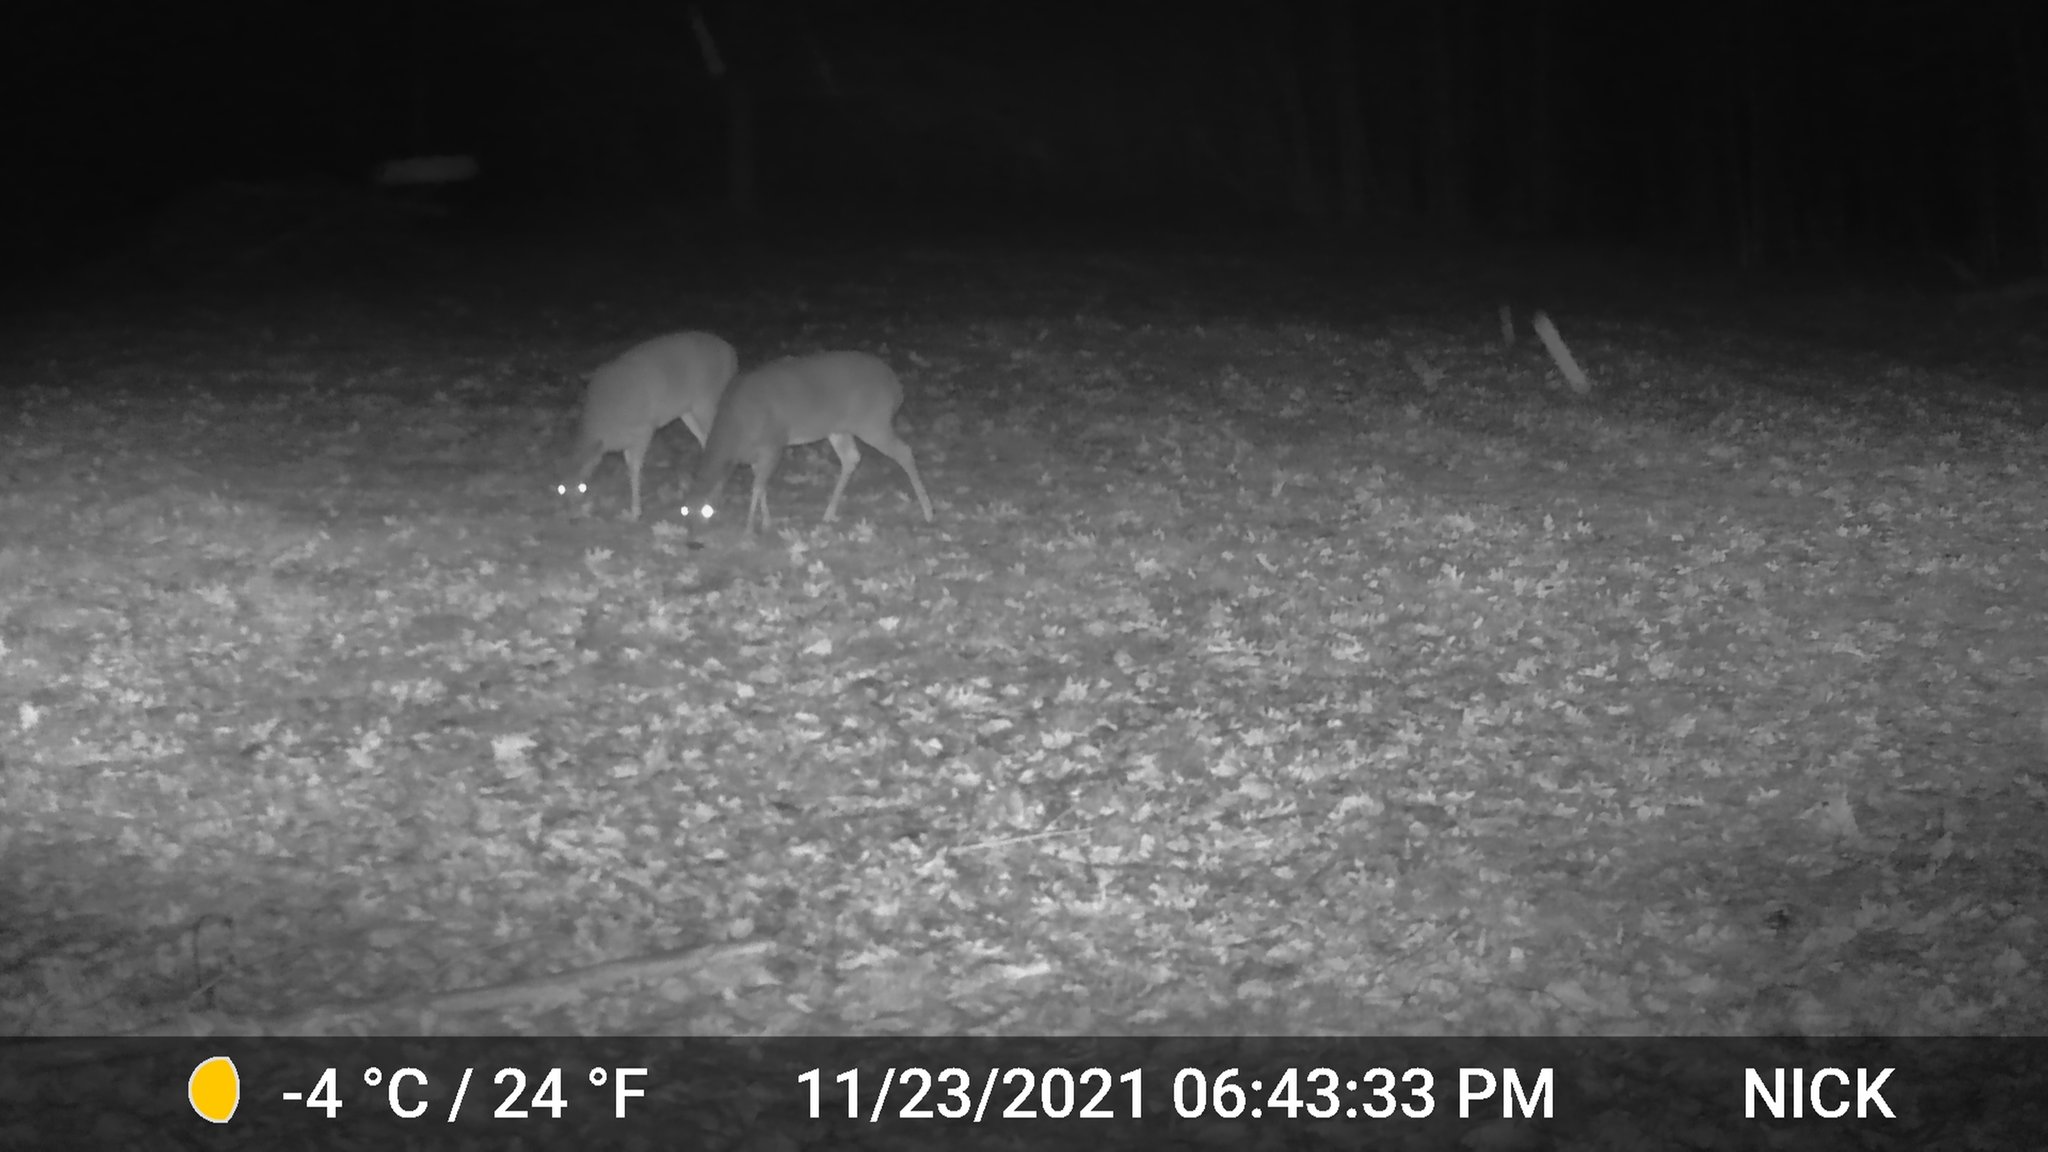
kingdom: Animalia
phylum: Chordata
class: Mammalia
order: Artiodactyla
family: Cervidae
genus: Odocoileus
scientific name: Odocoileus virginianus
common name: White-tailed deer
